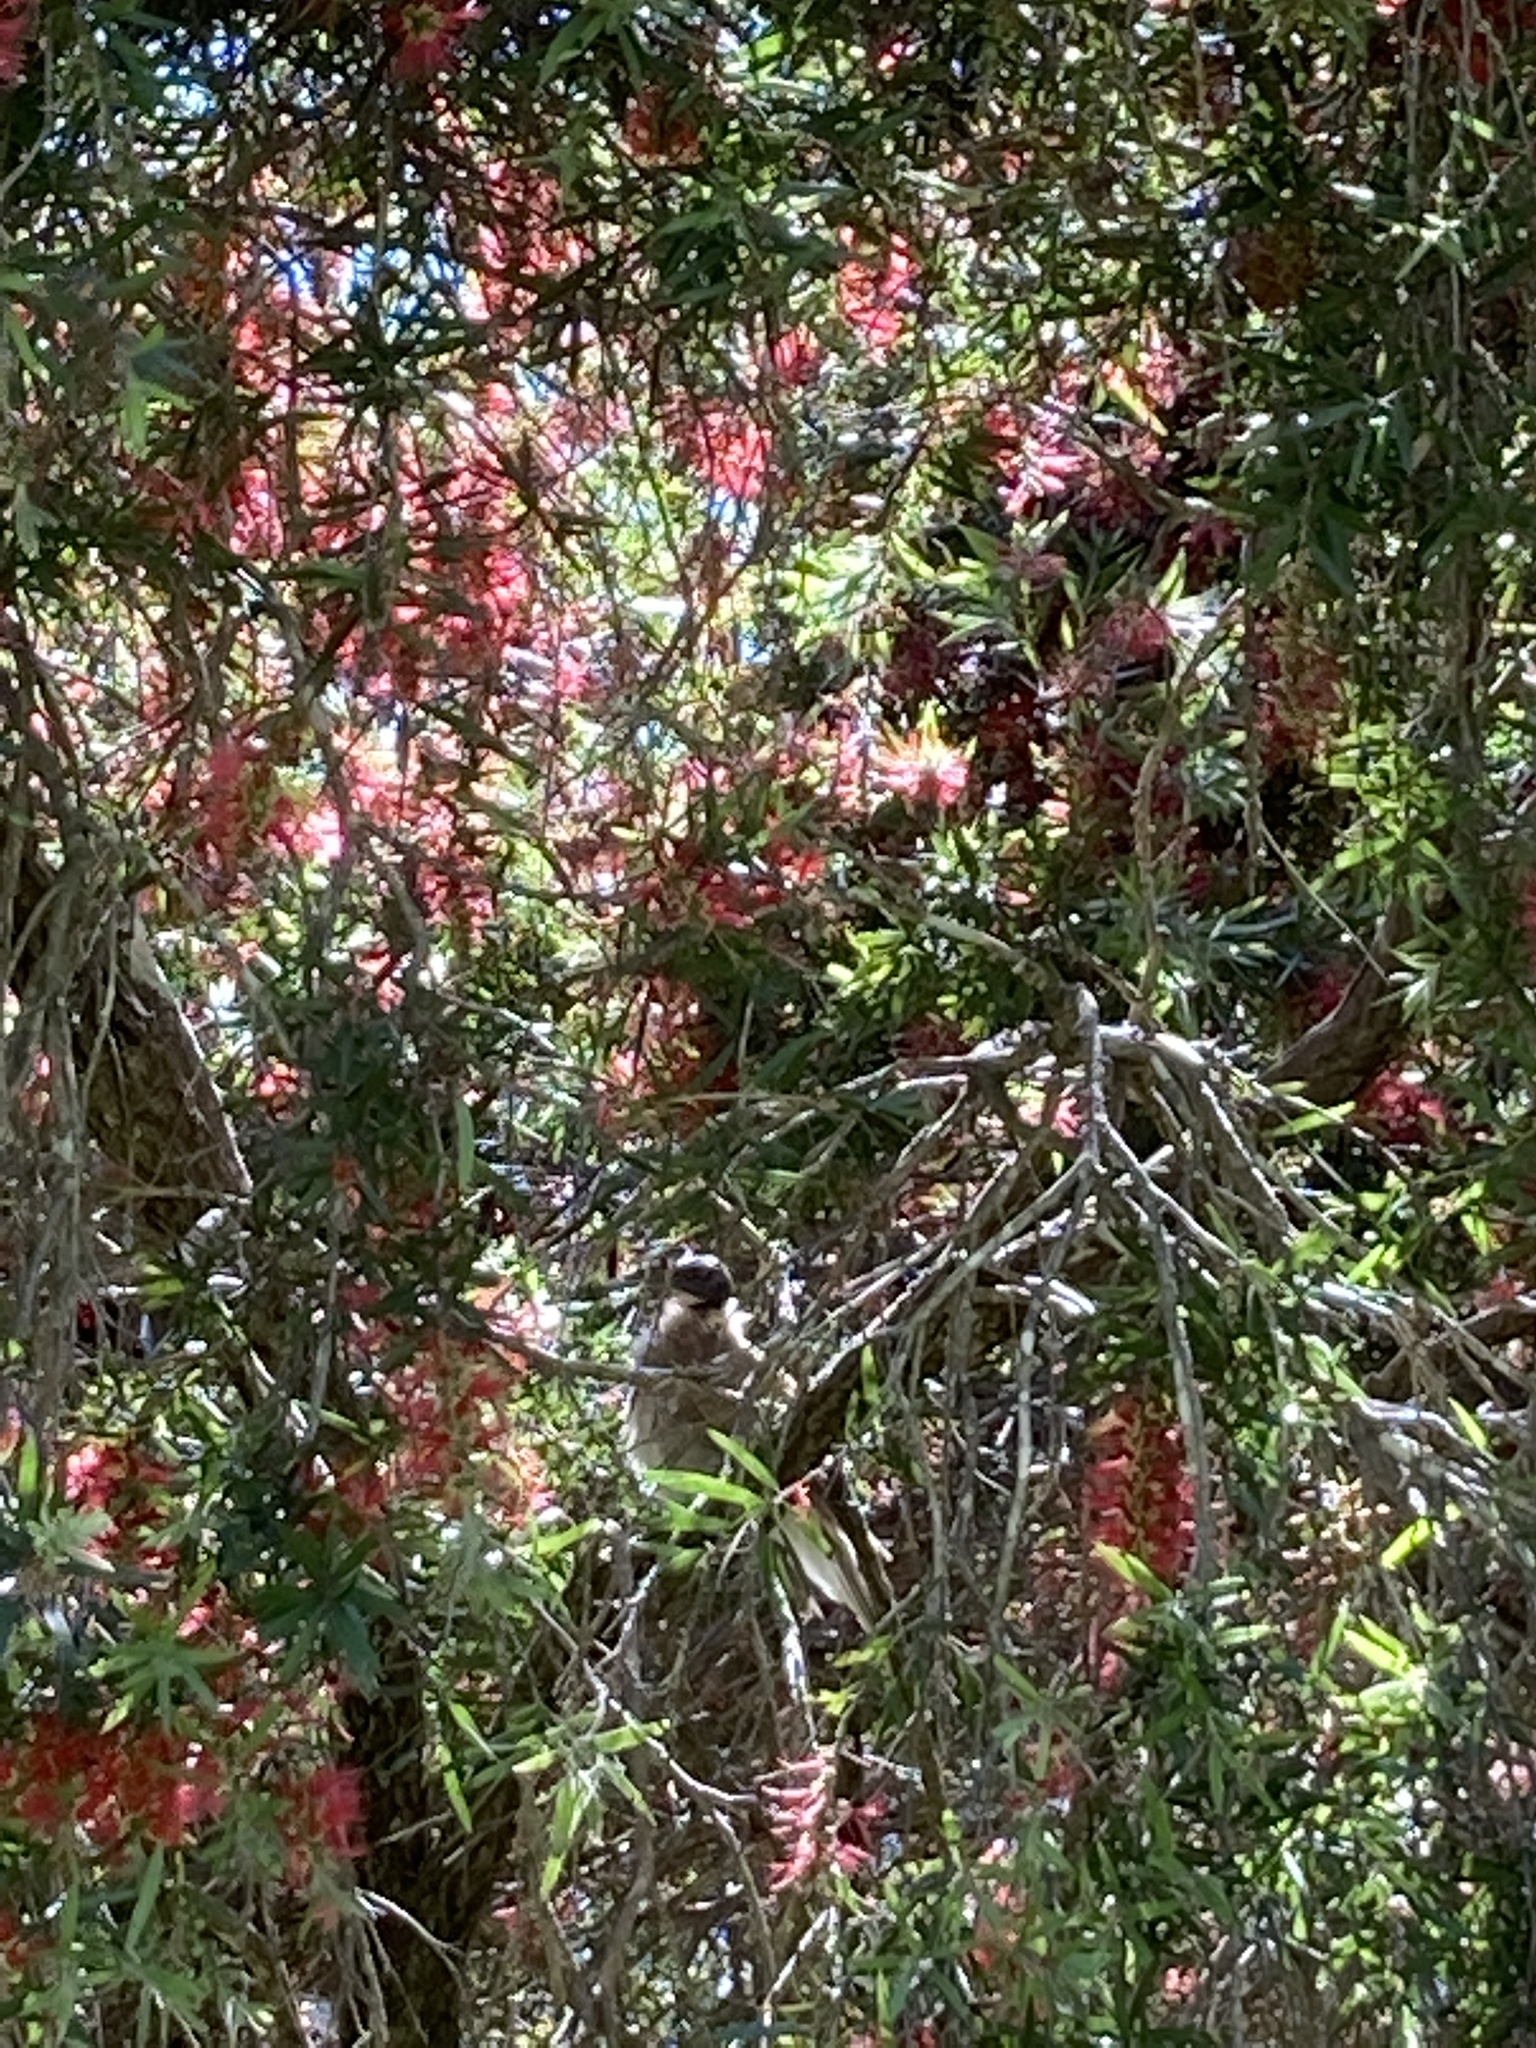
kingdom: Animalia
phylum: Chordata
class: Aves
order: Passeriformes
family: Meliphagidae
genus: Philemon
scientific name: Philemon corniculatus
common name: Noisy friarbird
